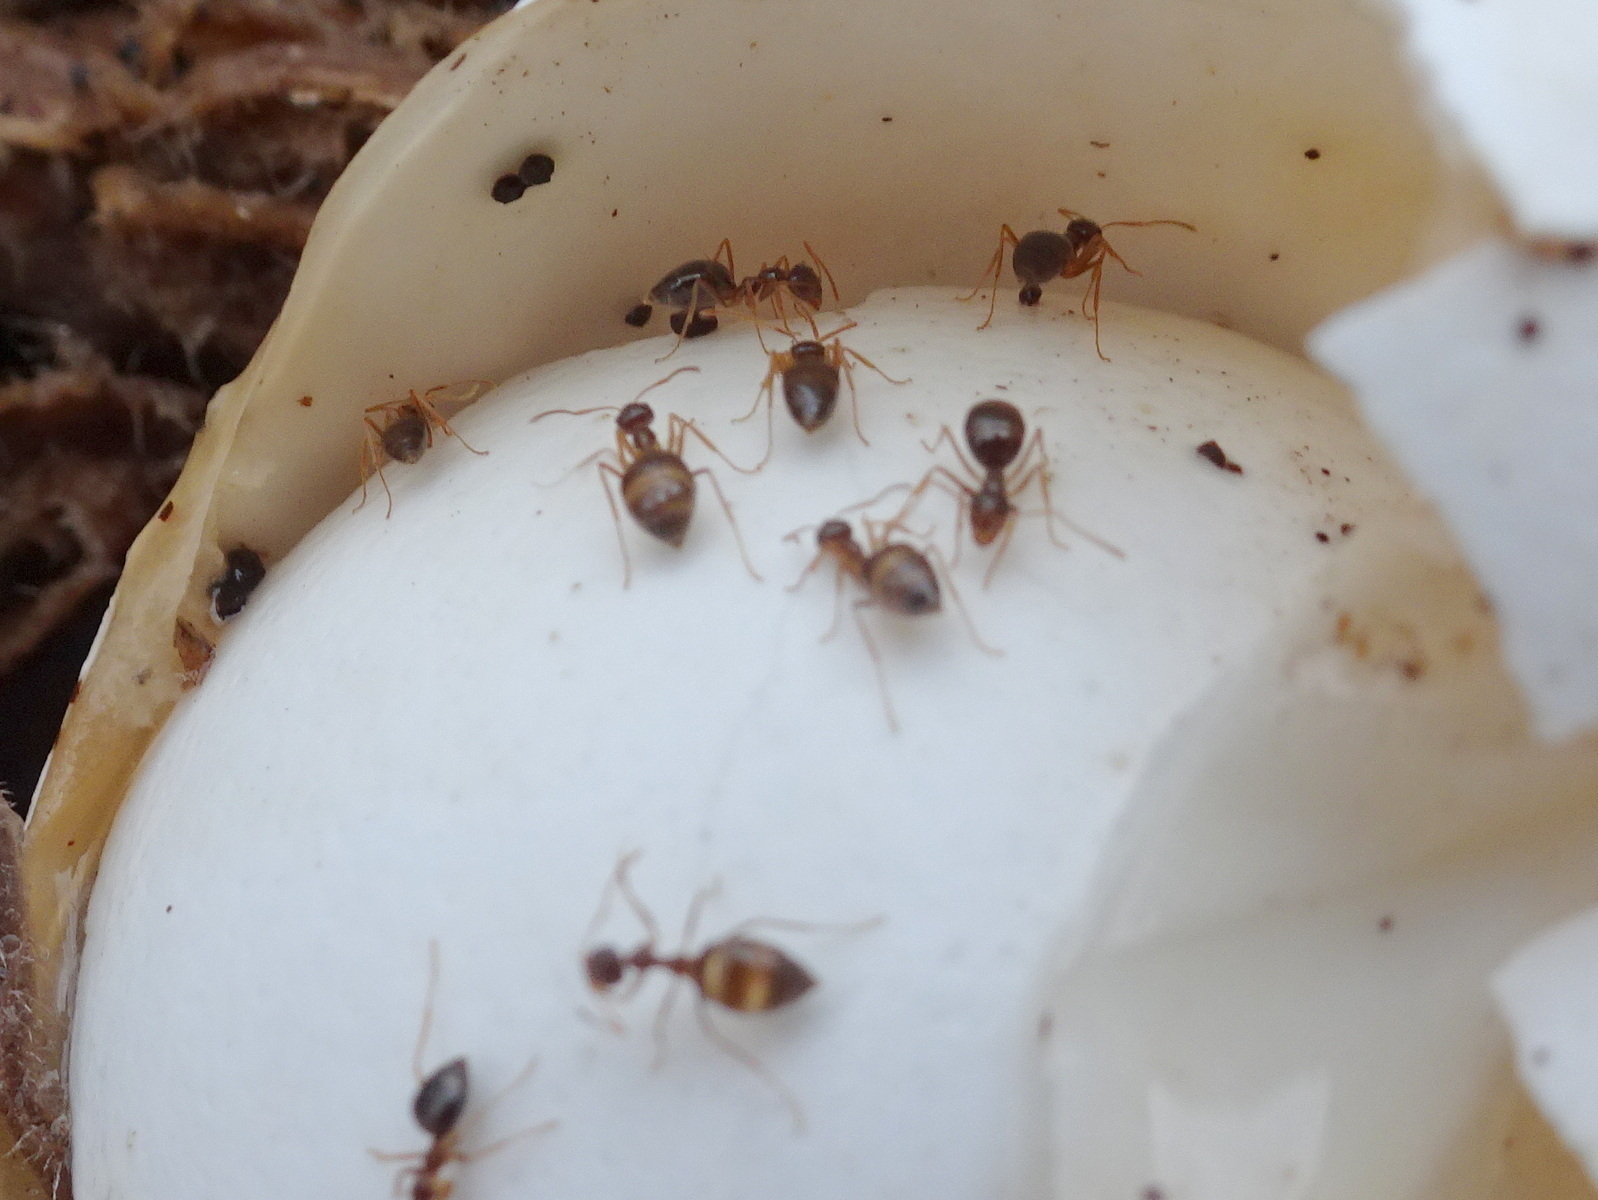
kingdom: Animalia
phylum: Arthropoda
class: Insecta
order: Hymenoptera
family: Formicidae
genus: Prenolepis
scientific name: Prenolepis imparis
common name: Small honey ant
